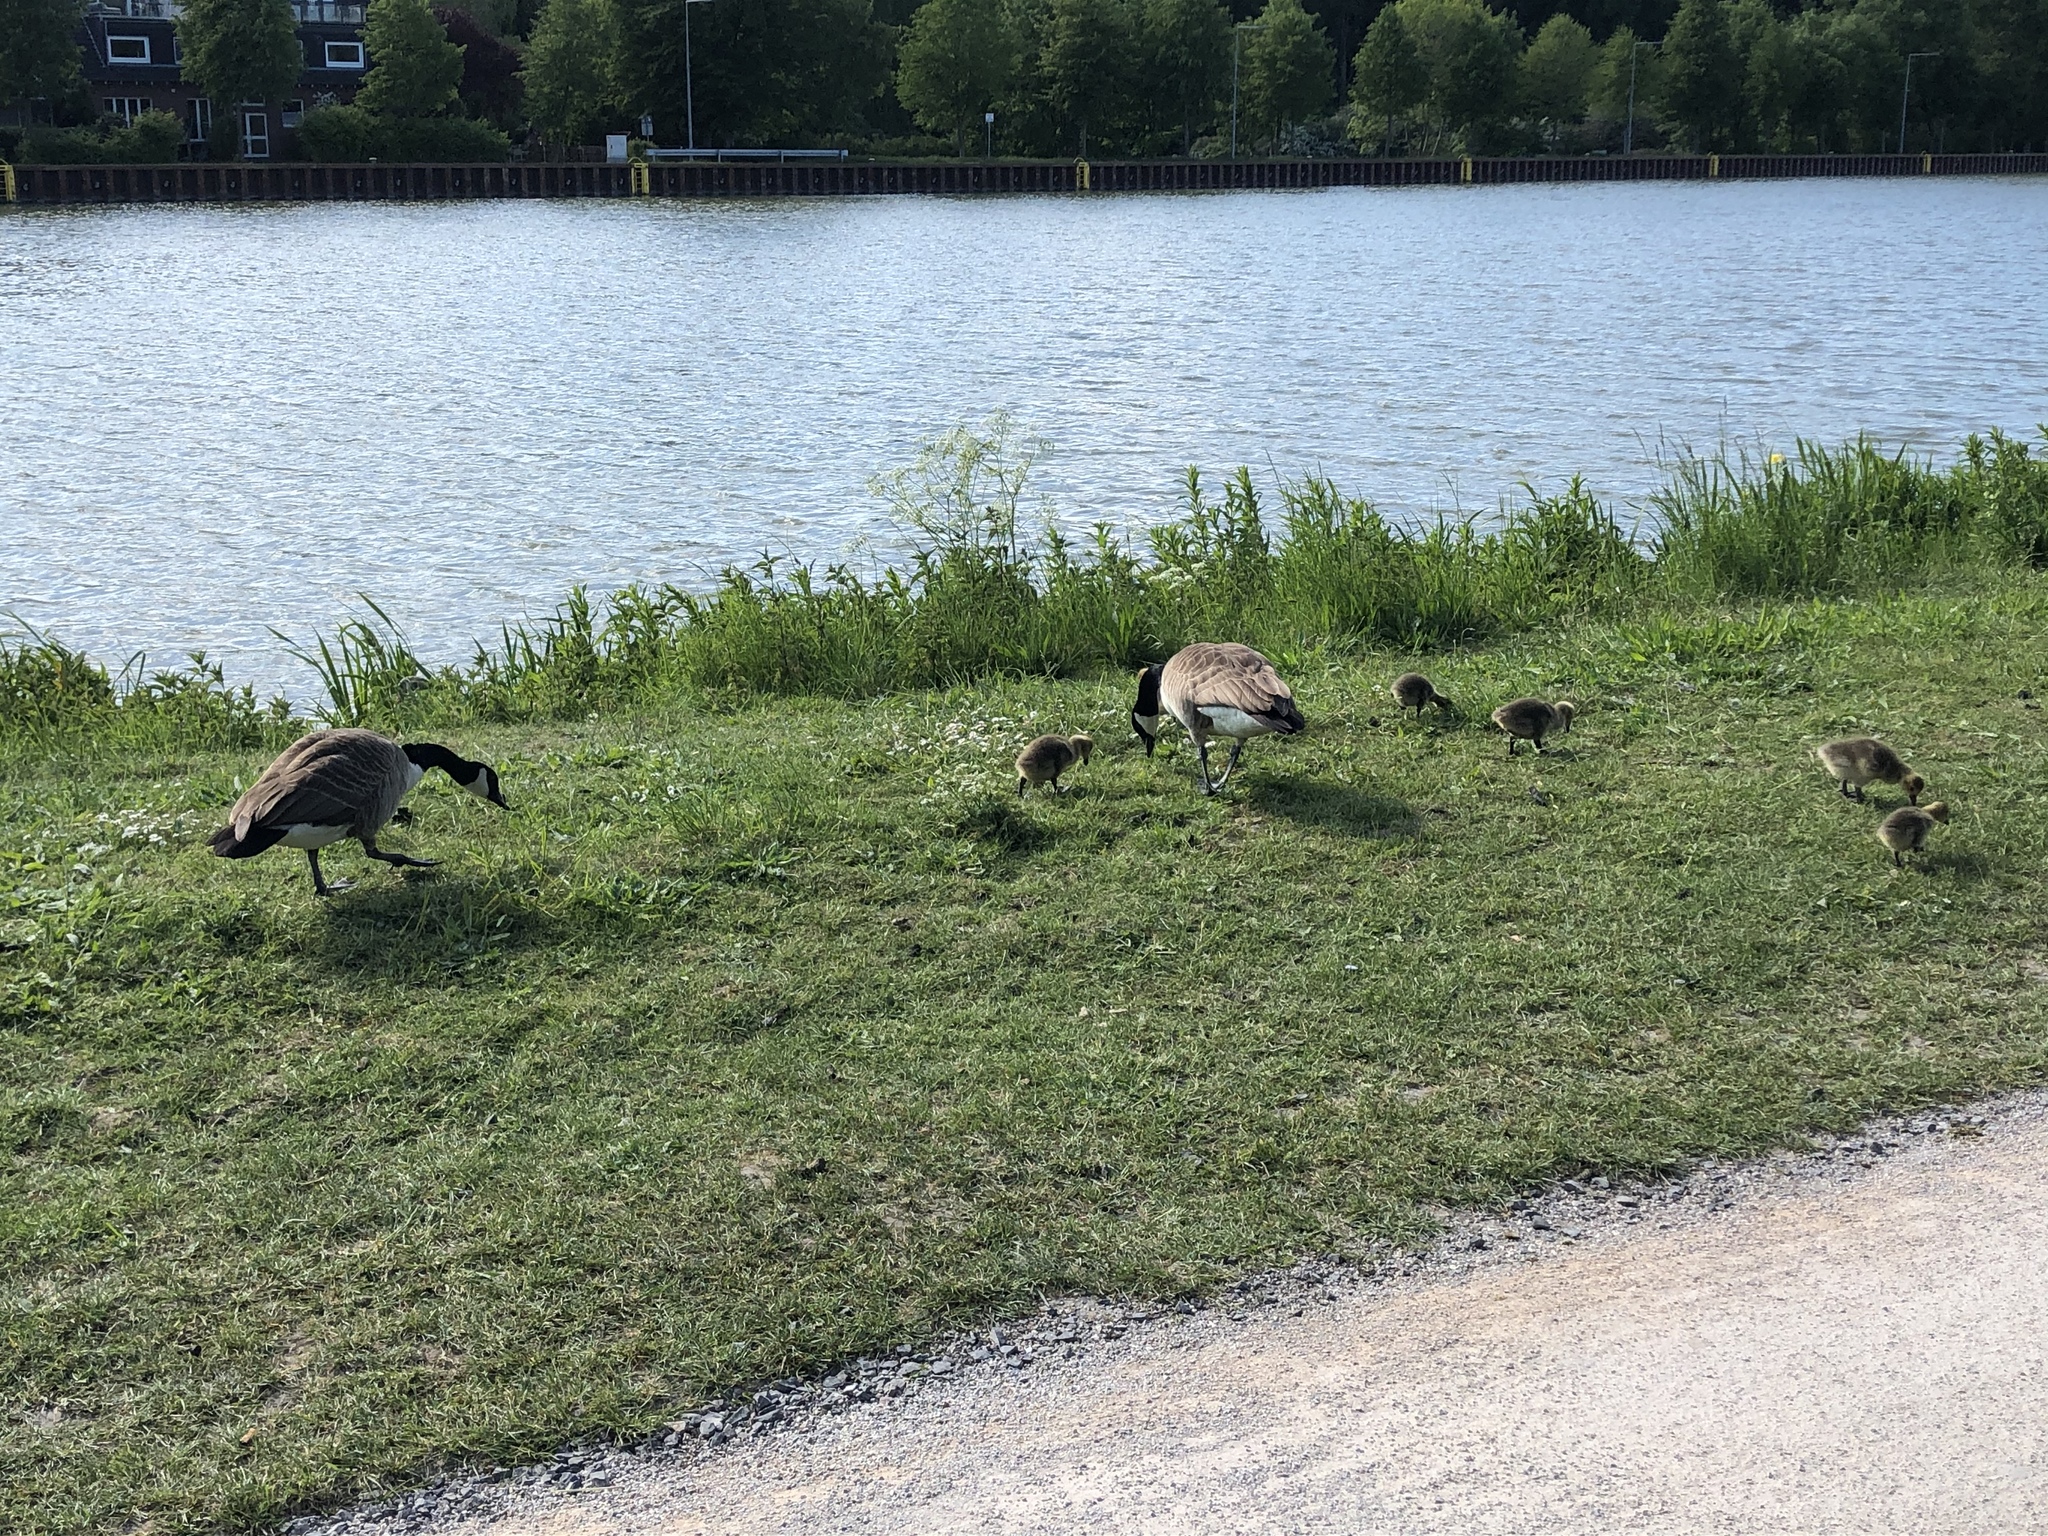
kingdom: Animalia
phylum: Chordata
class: Aves
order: Anseriformes
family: Anatidae
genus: Branta
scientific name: Branta canadensis
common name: Canada goose
